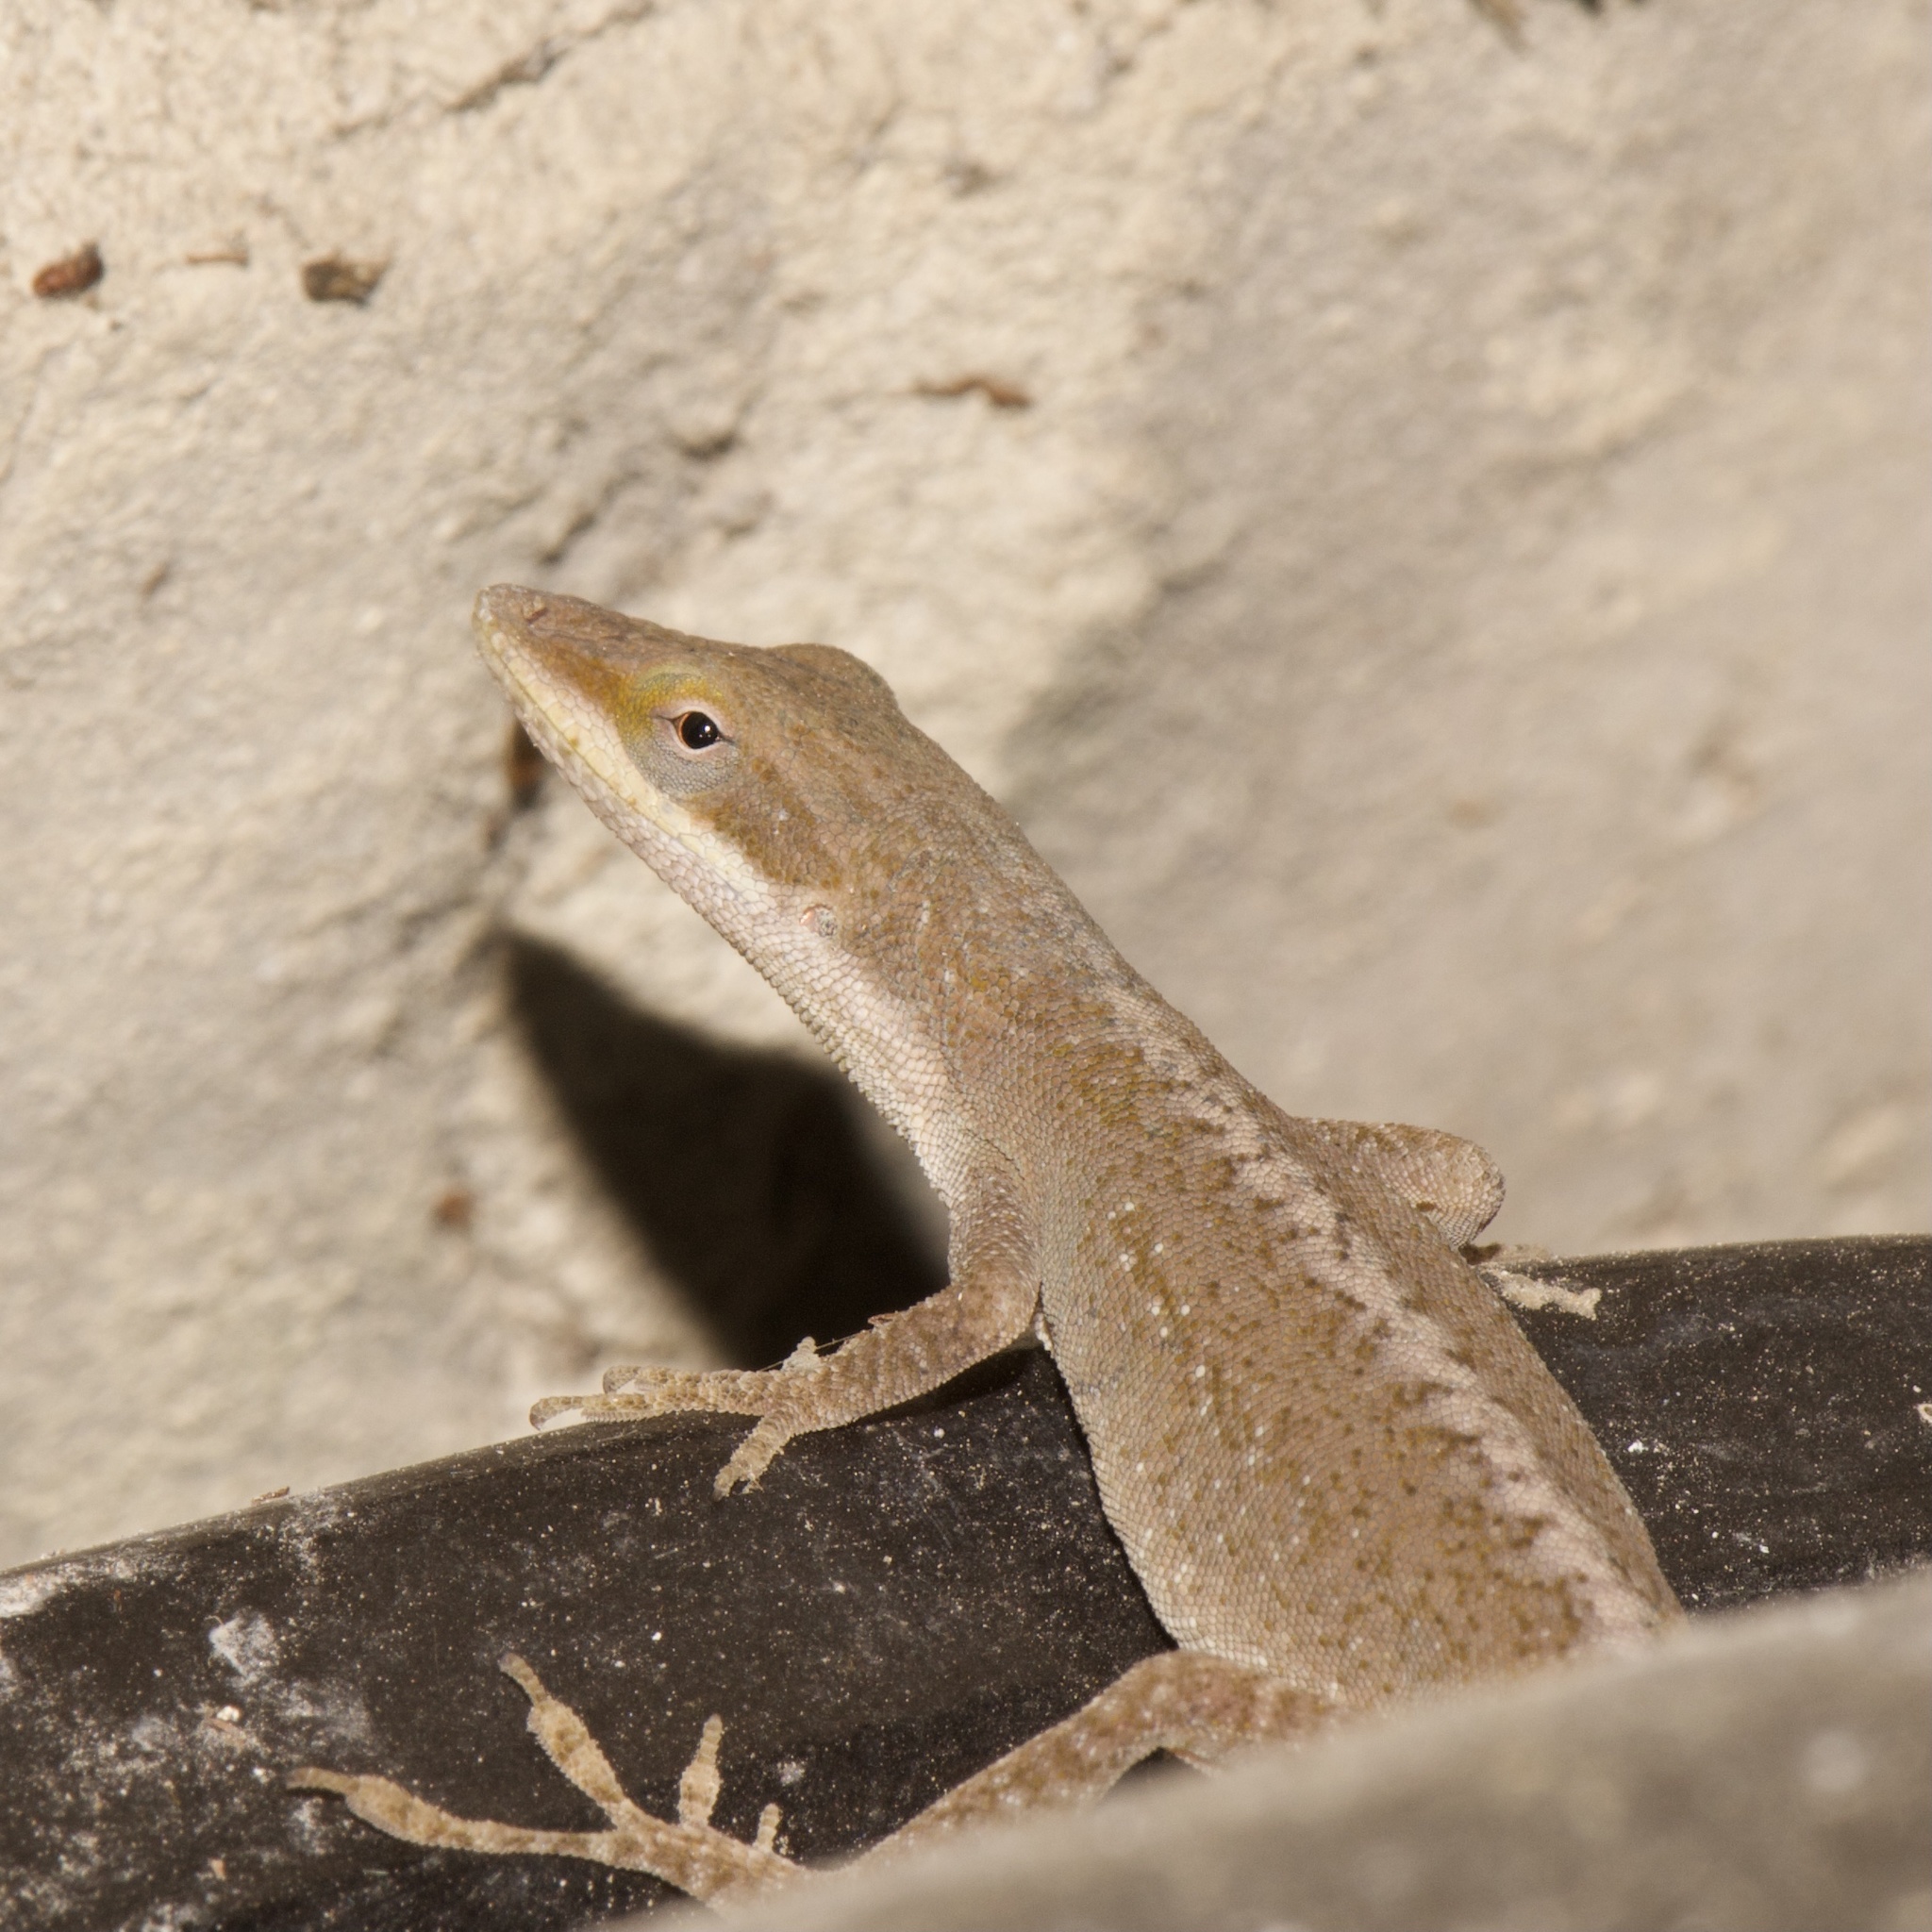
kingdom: Animalia
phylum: Chordata
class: Squamata
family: Dactyloidae
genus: Anolis
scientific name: Anolis carolinensis
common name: Green anole
